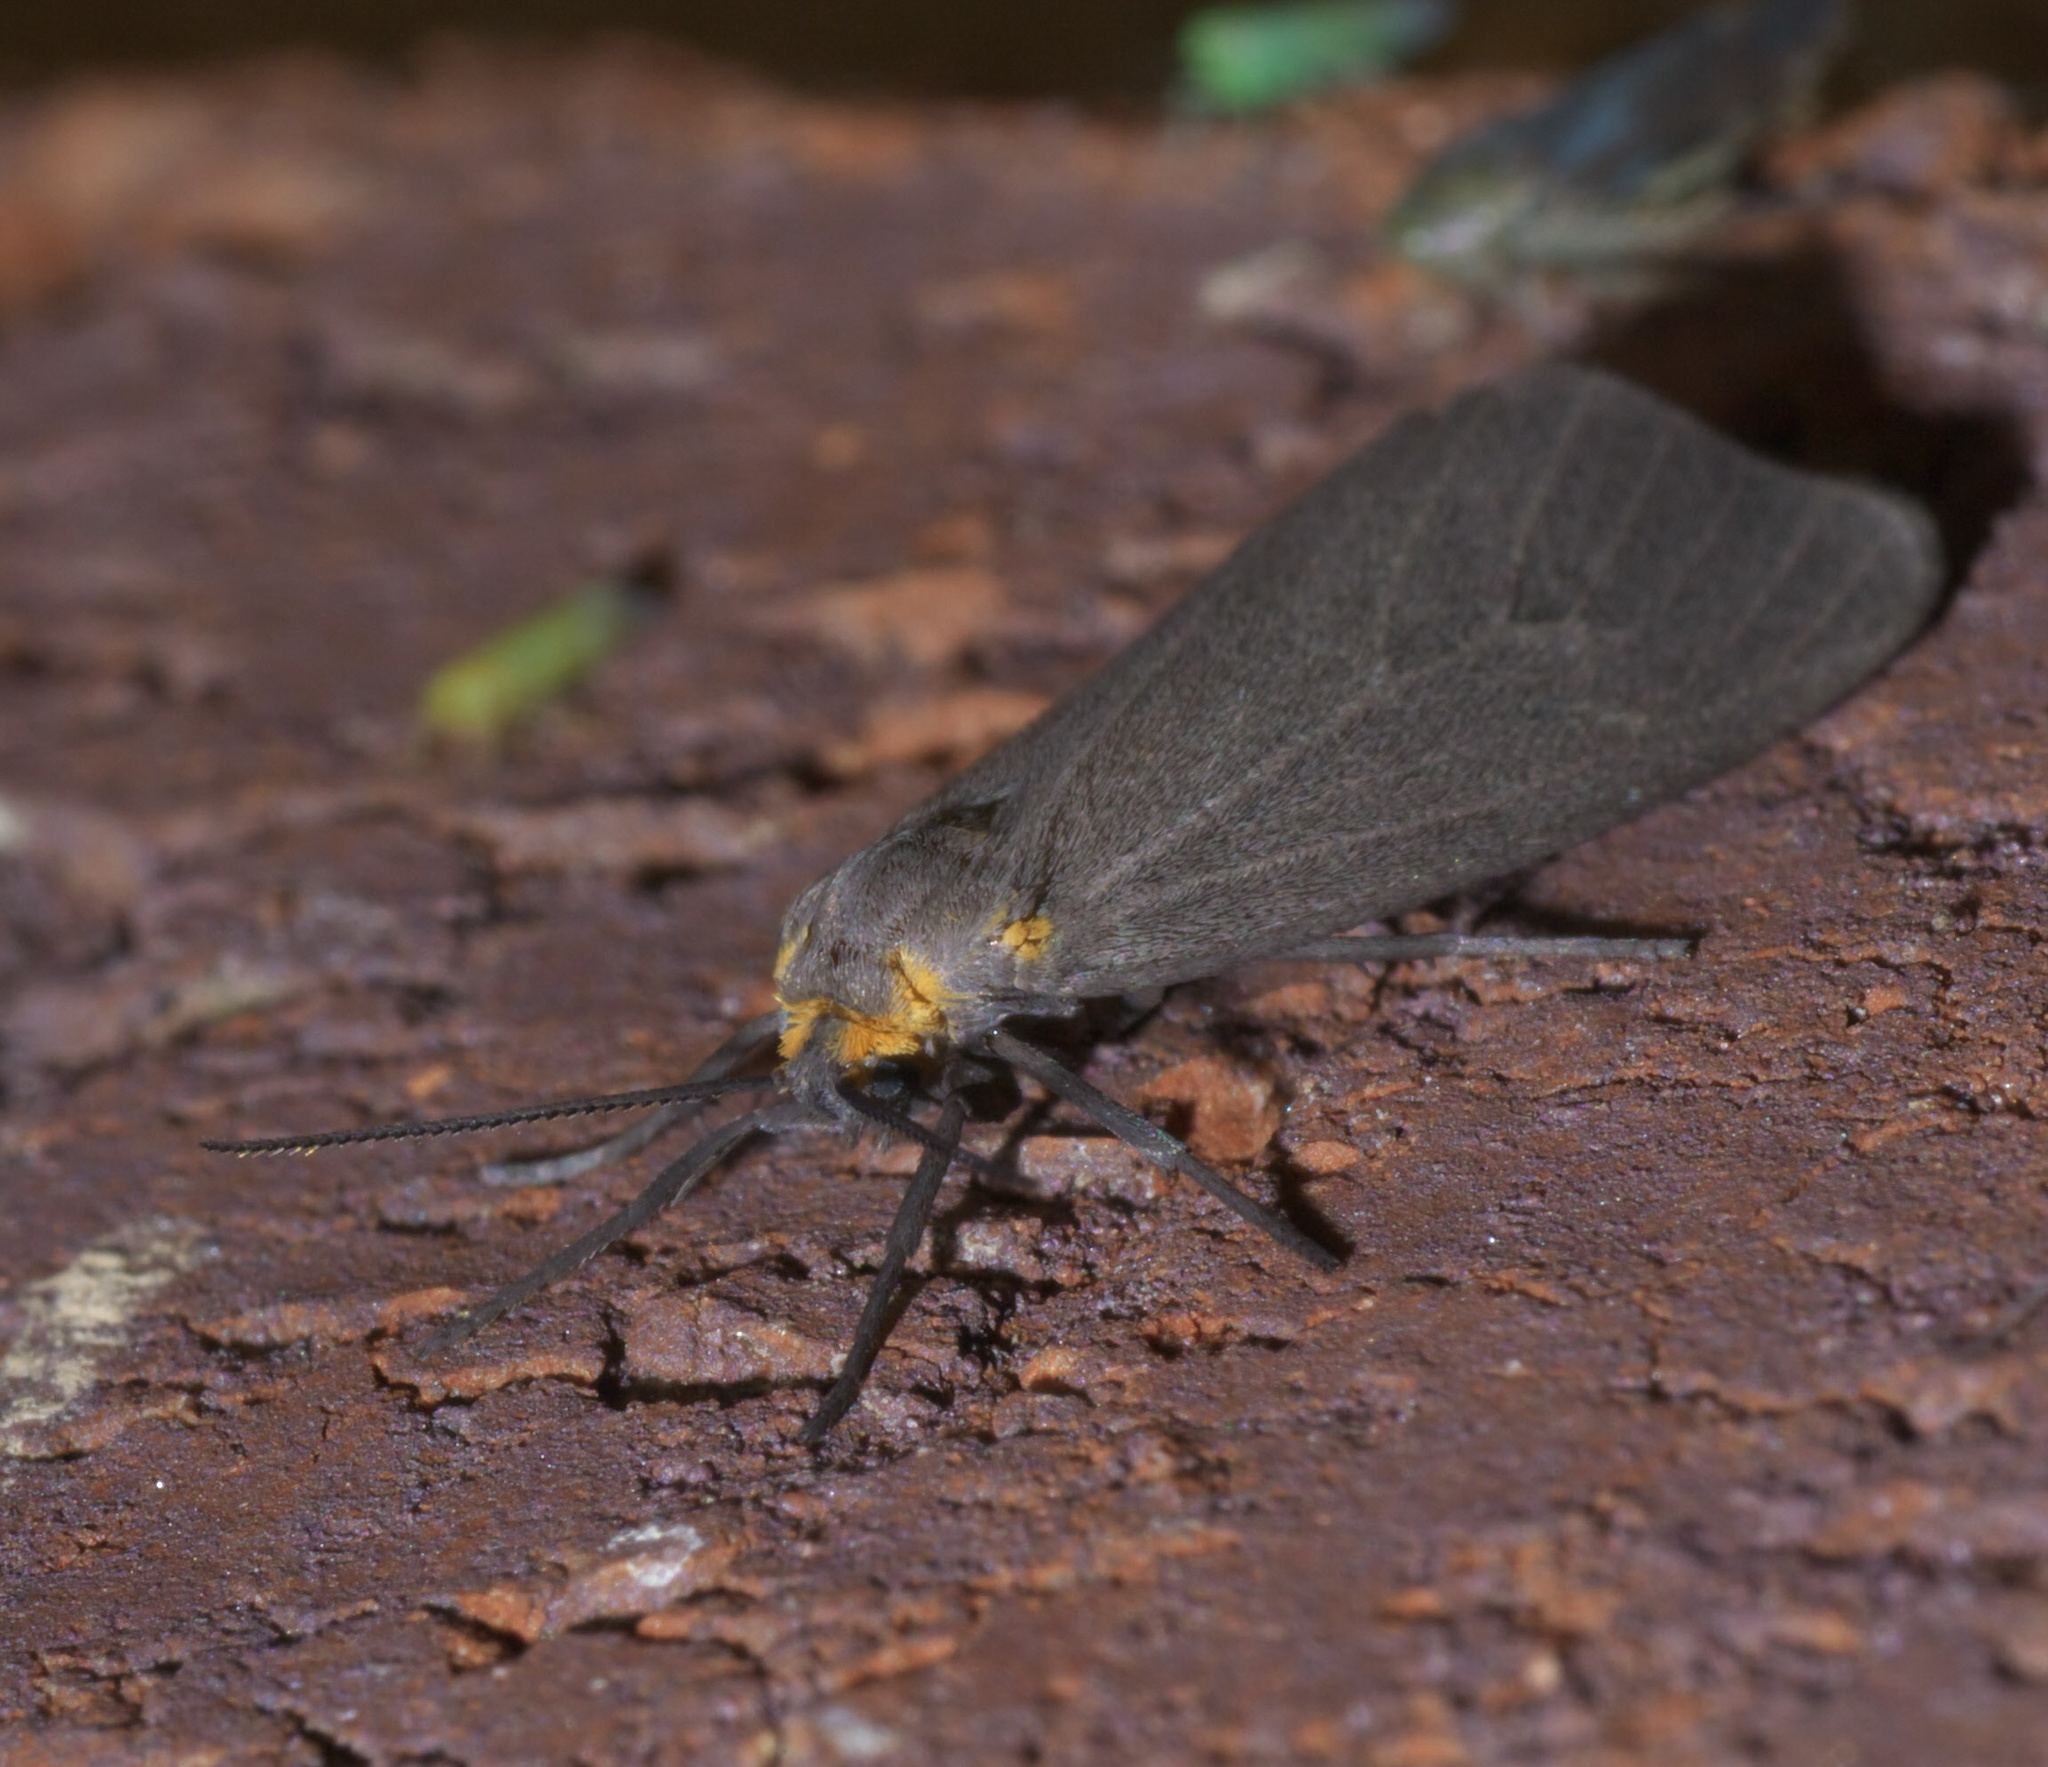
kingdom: Animalia
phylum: Arthropoda
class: Insecta
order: Lepidoptera
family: Erebidae
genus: Pagara
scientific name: Pagara simplex
